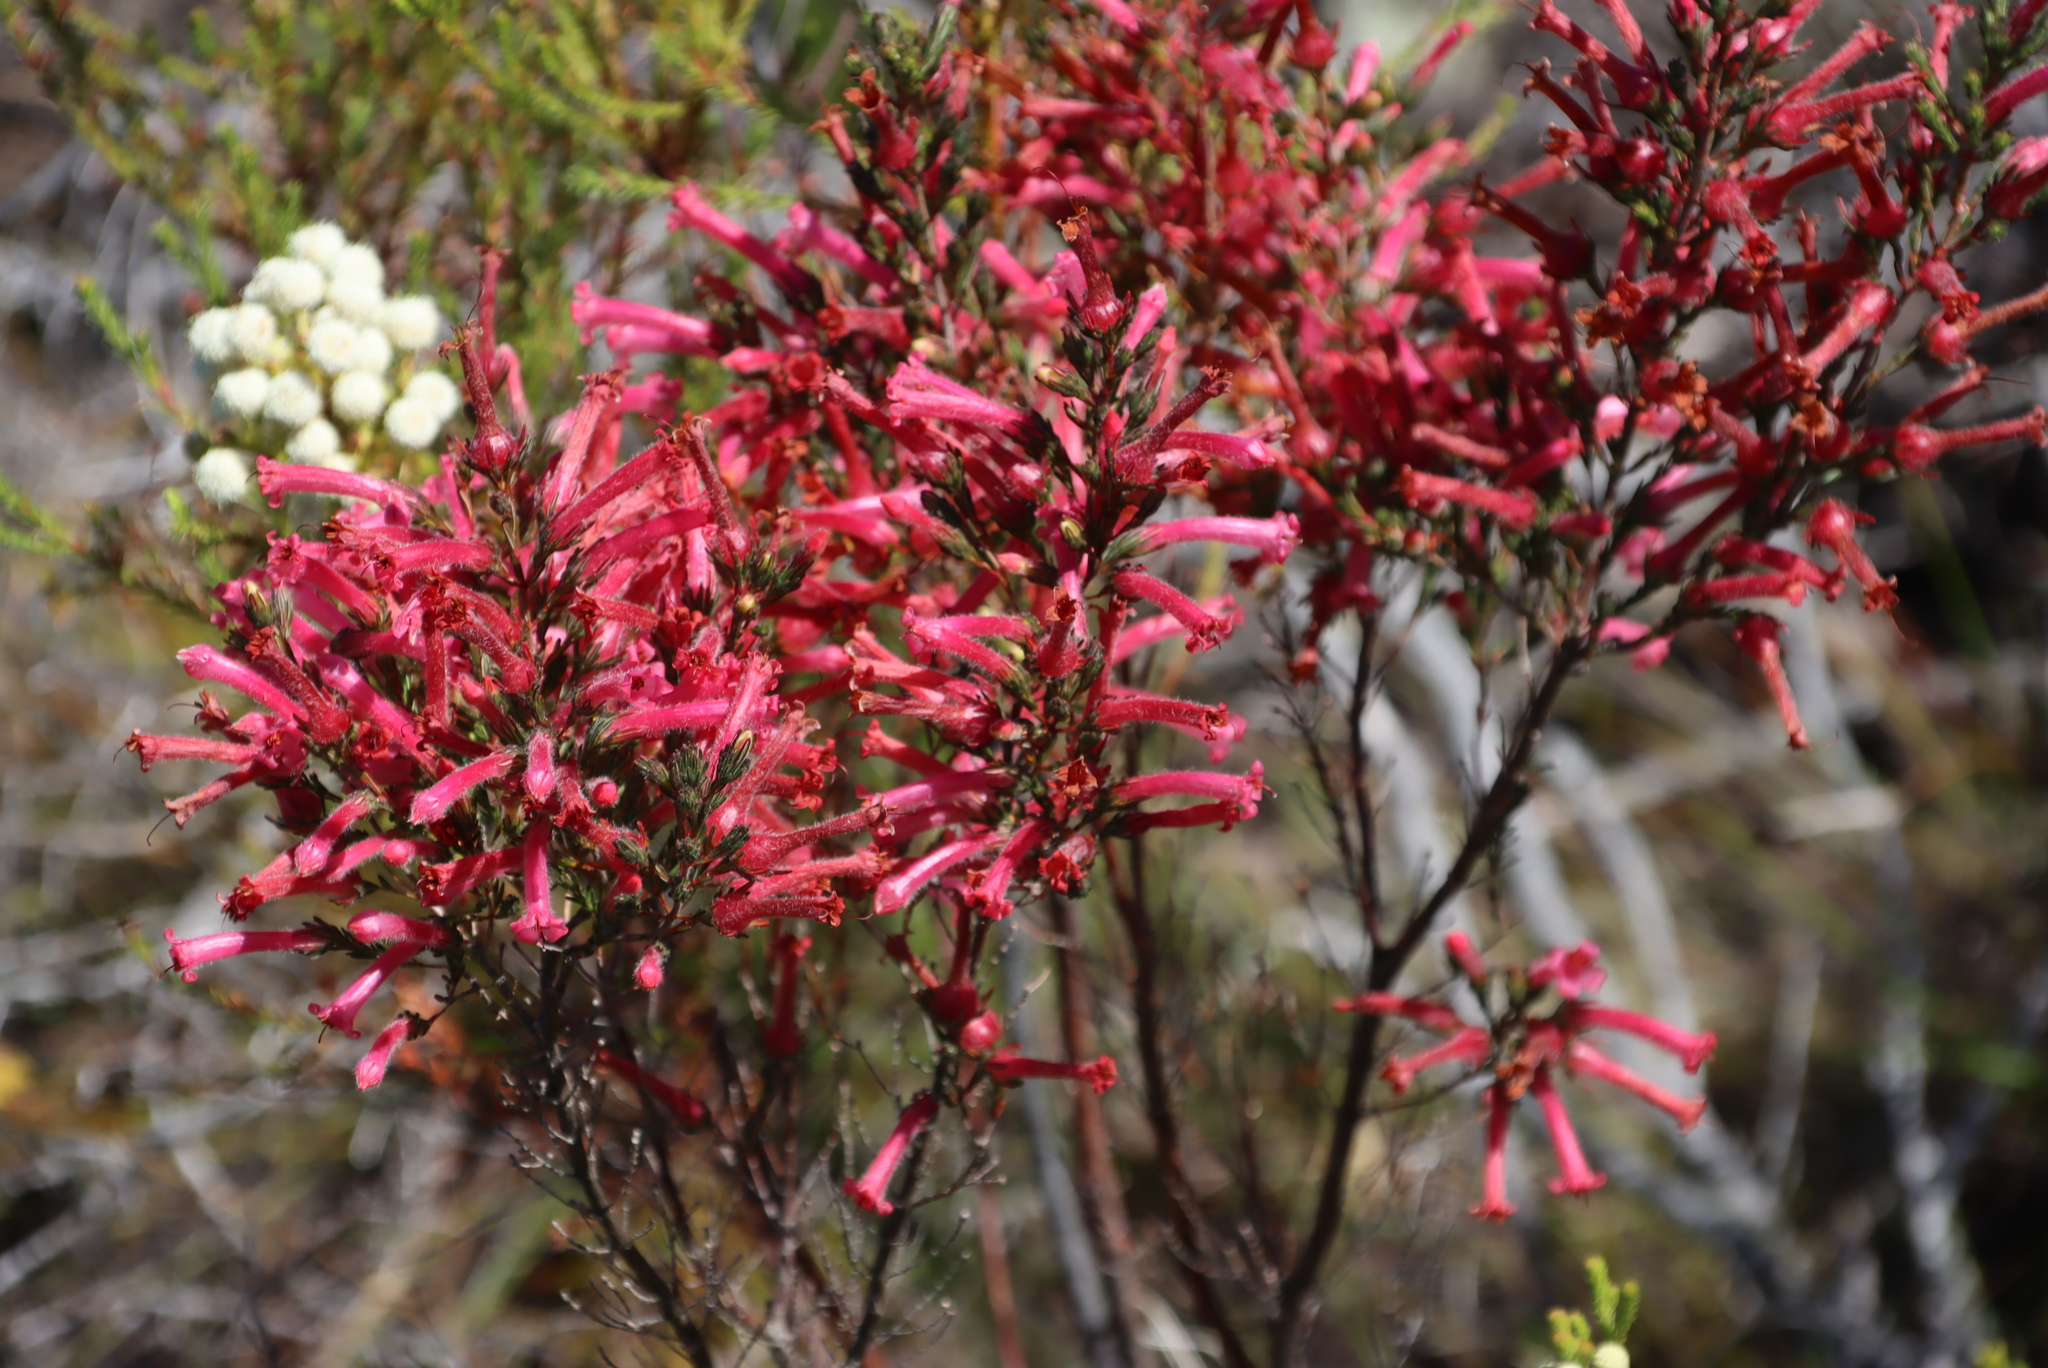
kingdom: Plantae
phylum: Tracheophyta
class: Magnoliopsida
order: Ericales
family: Ericaceae
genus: Erica
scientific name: Erica curviflora
